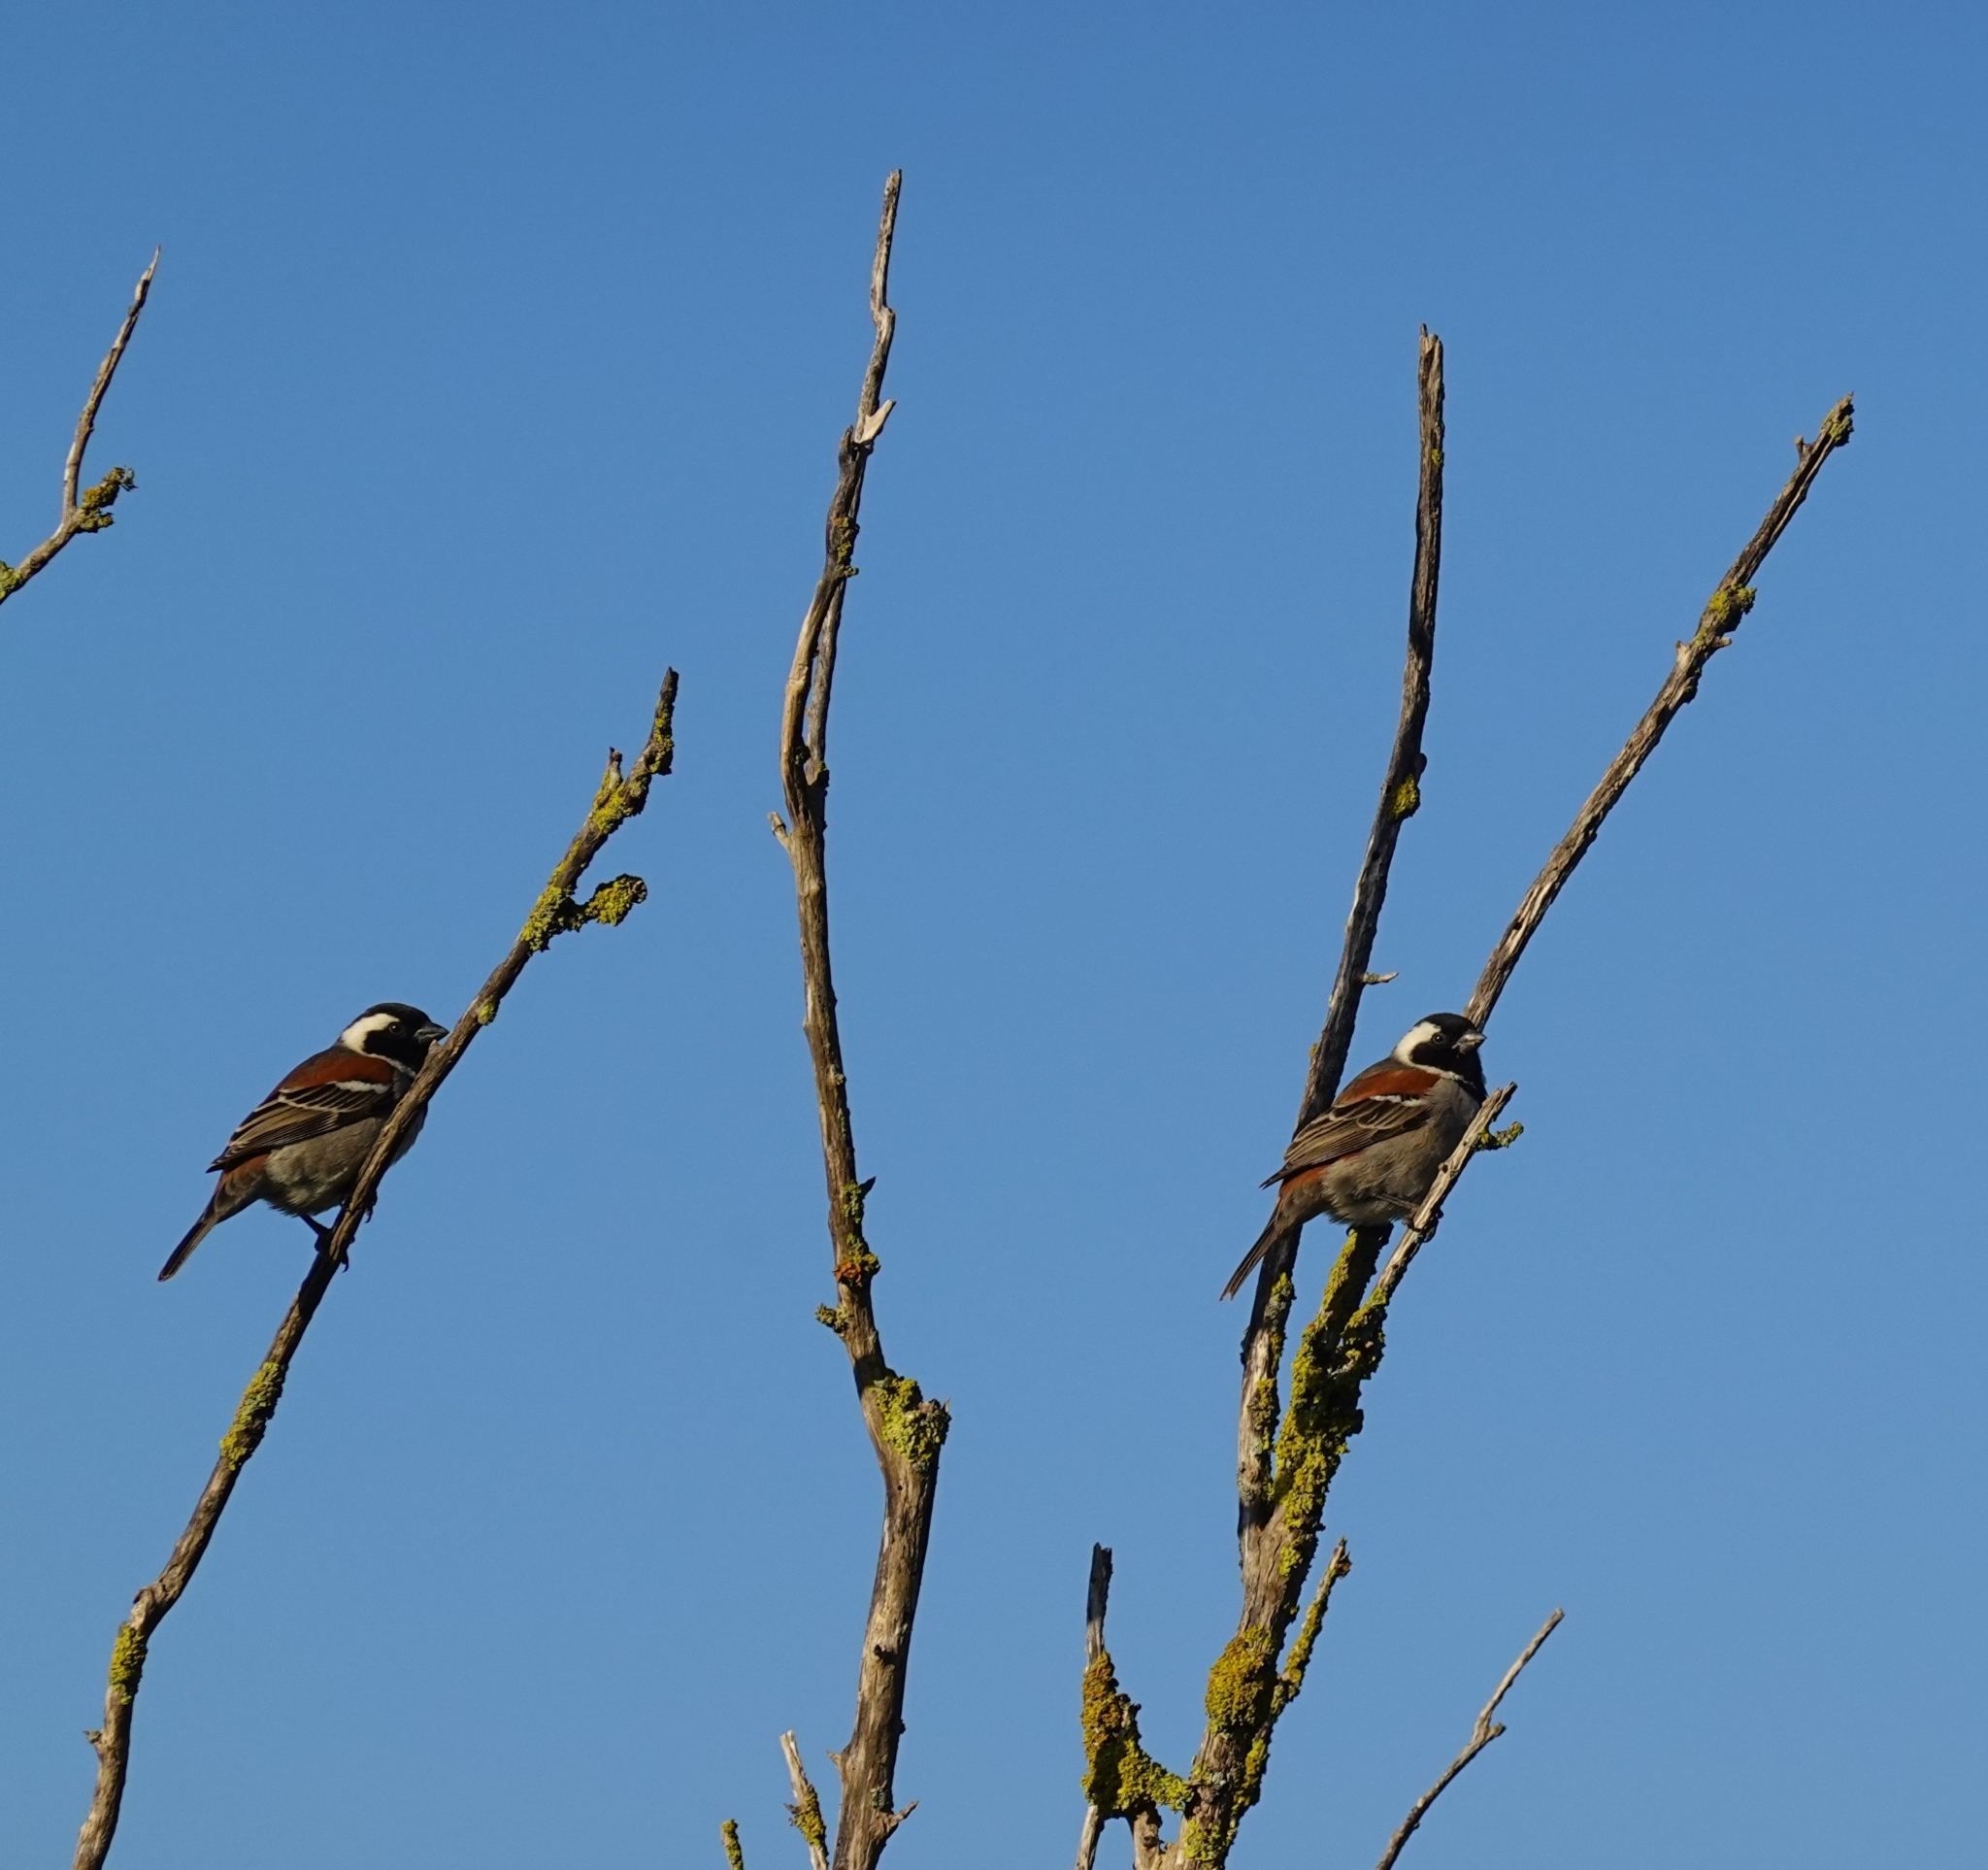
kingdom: Animalia
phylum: Chordata
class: Aves
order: Passeriformes
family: Passeridae
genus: Passer
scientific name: Passer melanurus
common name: Cape sparrow
